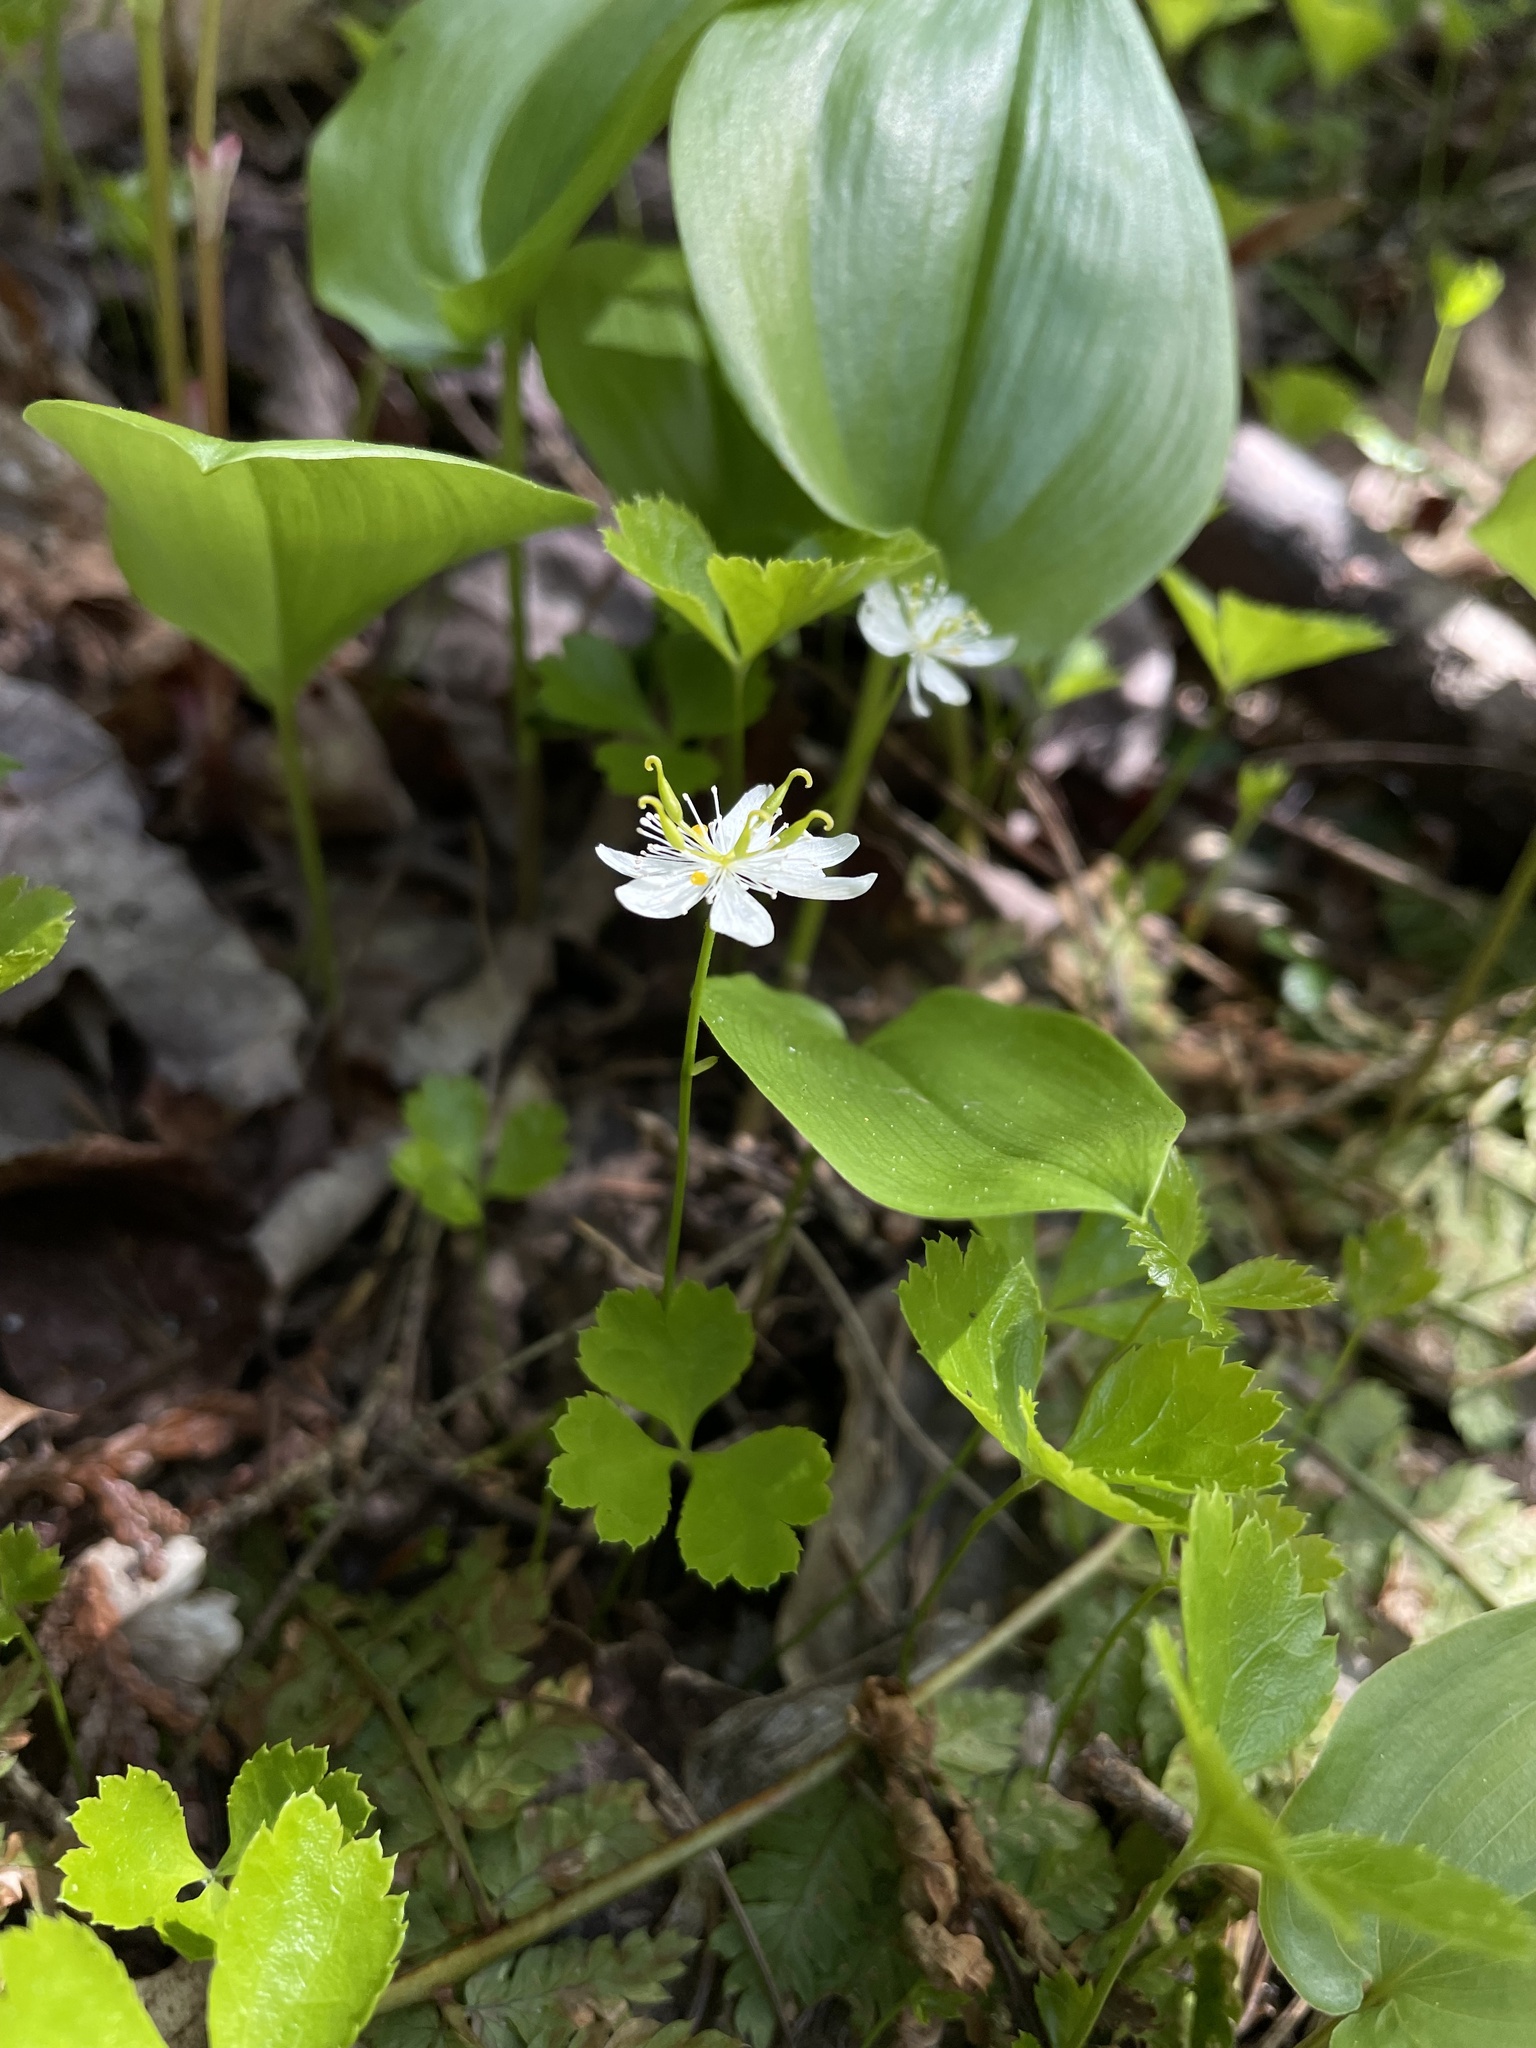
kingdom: Plantae
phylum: Tracheophyta
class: Magnoliopsida
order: Ranunculales
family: Ranunculaceae
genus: Coptis
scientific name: Coptis trifolia
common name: Canker-root
